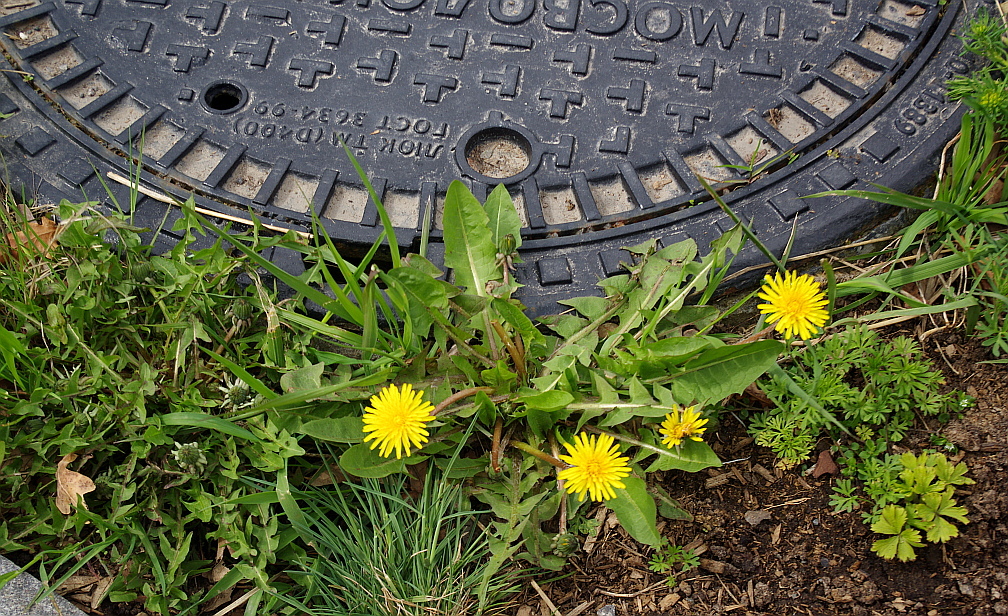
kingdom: Plantae
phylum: Tracheophyta
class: Magnoliopsida
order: Asterales
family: Asteraceae
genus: Taraxacum
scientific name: Taraxacum officinale
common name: Common dandelion
